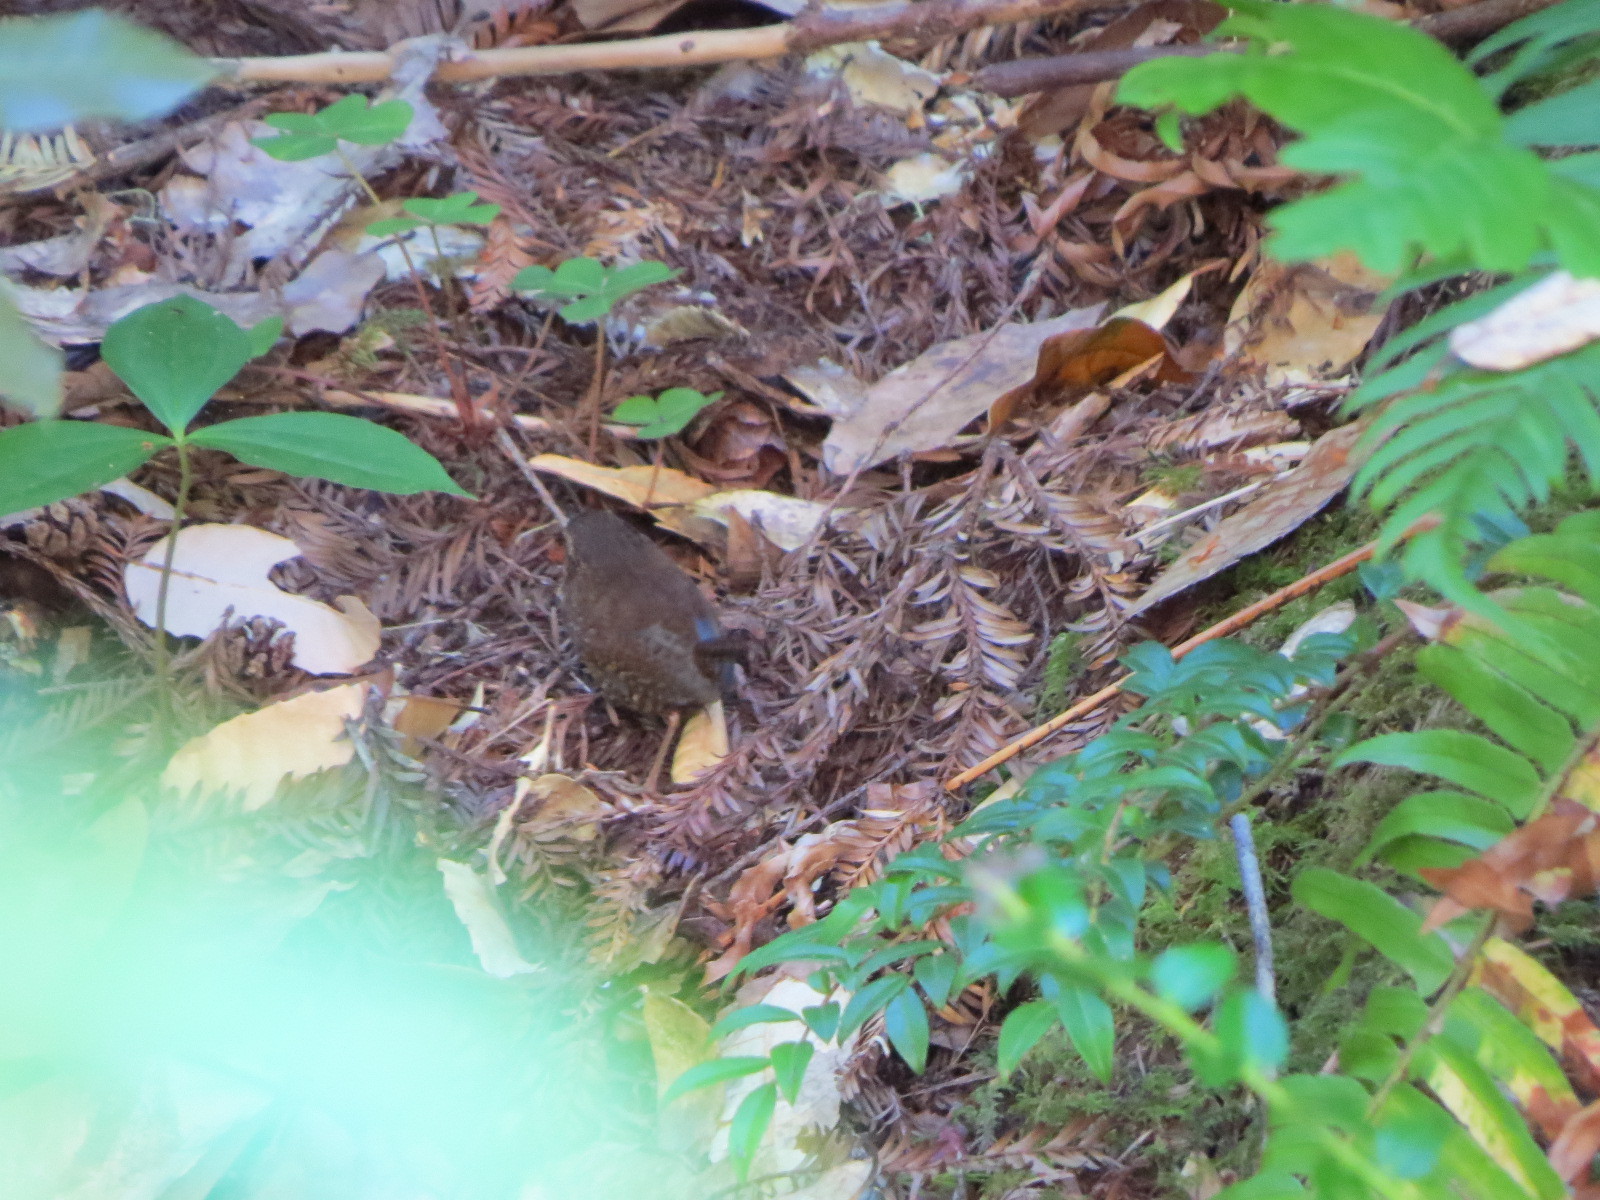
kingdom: Animalia
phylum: Chordata
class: Aves
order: Passeriformes
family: Troglodytidae
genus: Troglodytes
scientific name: Troglodytes pacificus
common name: Pacific wren
